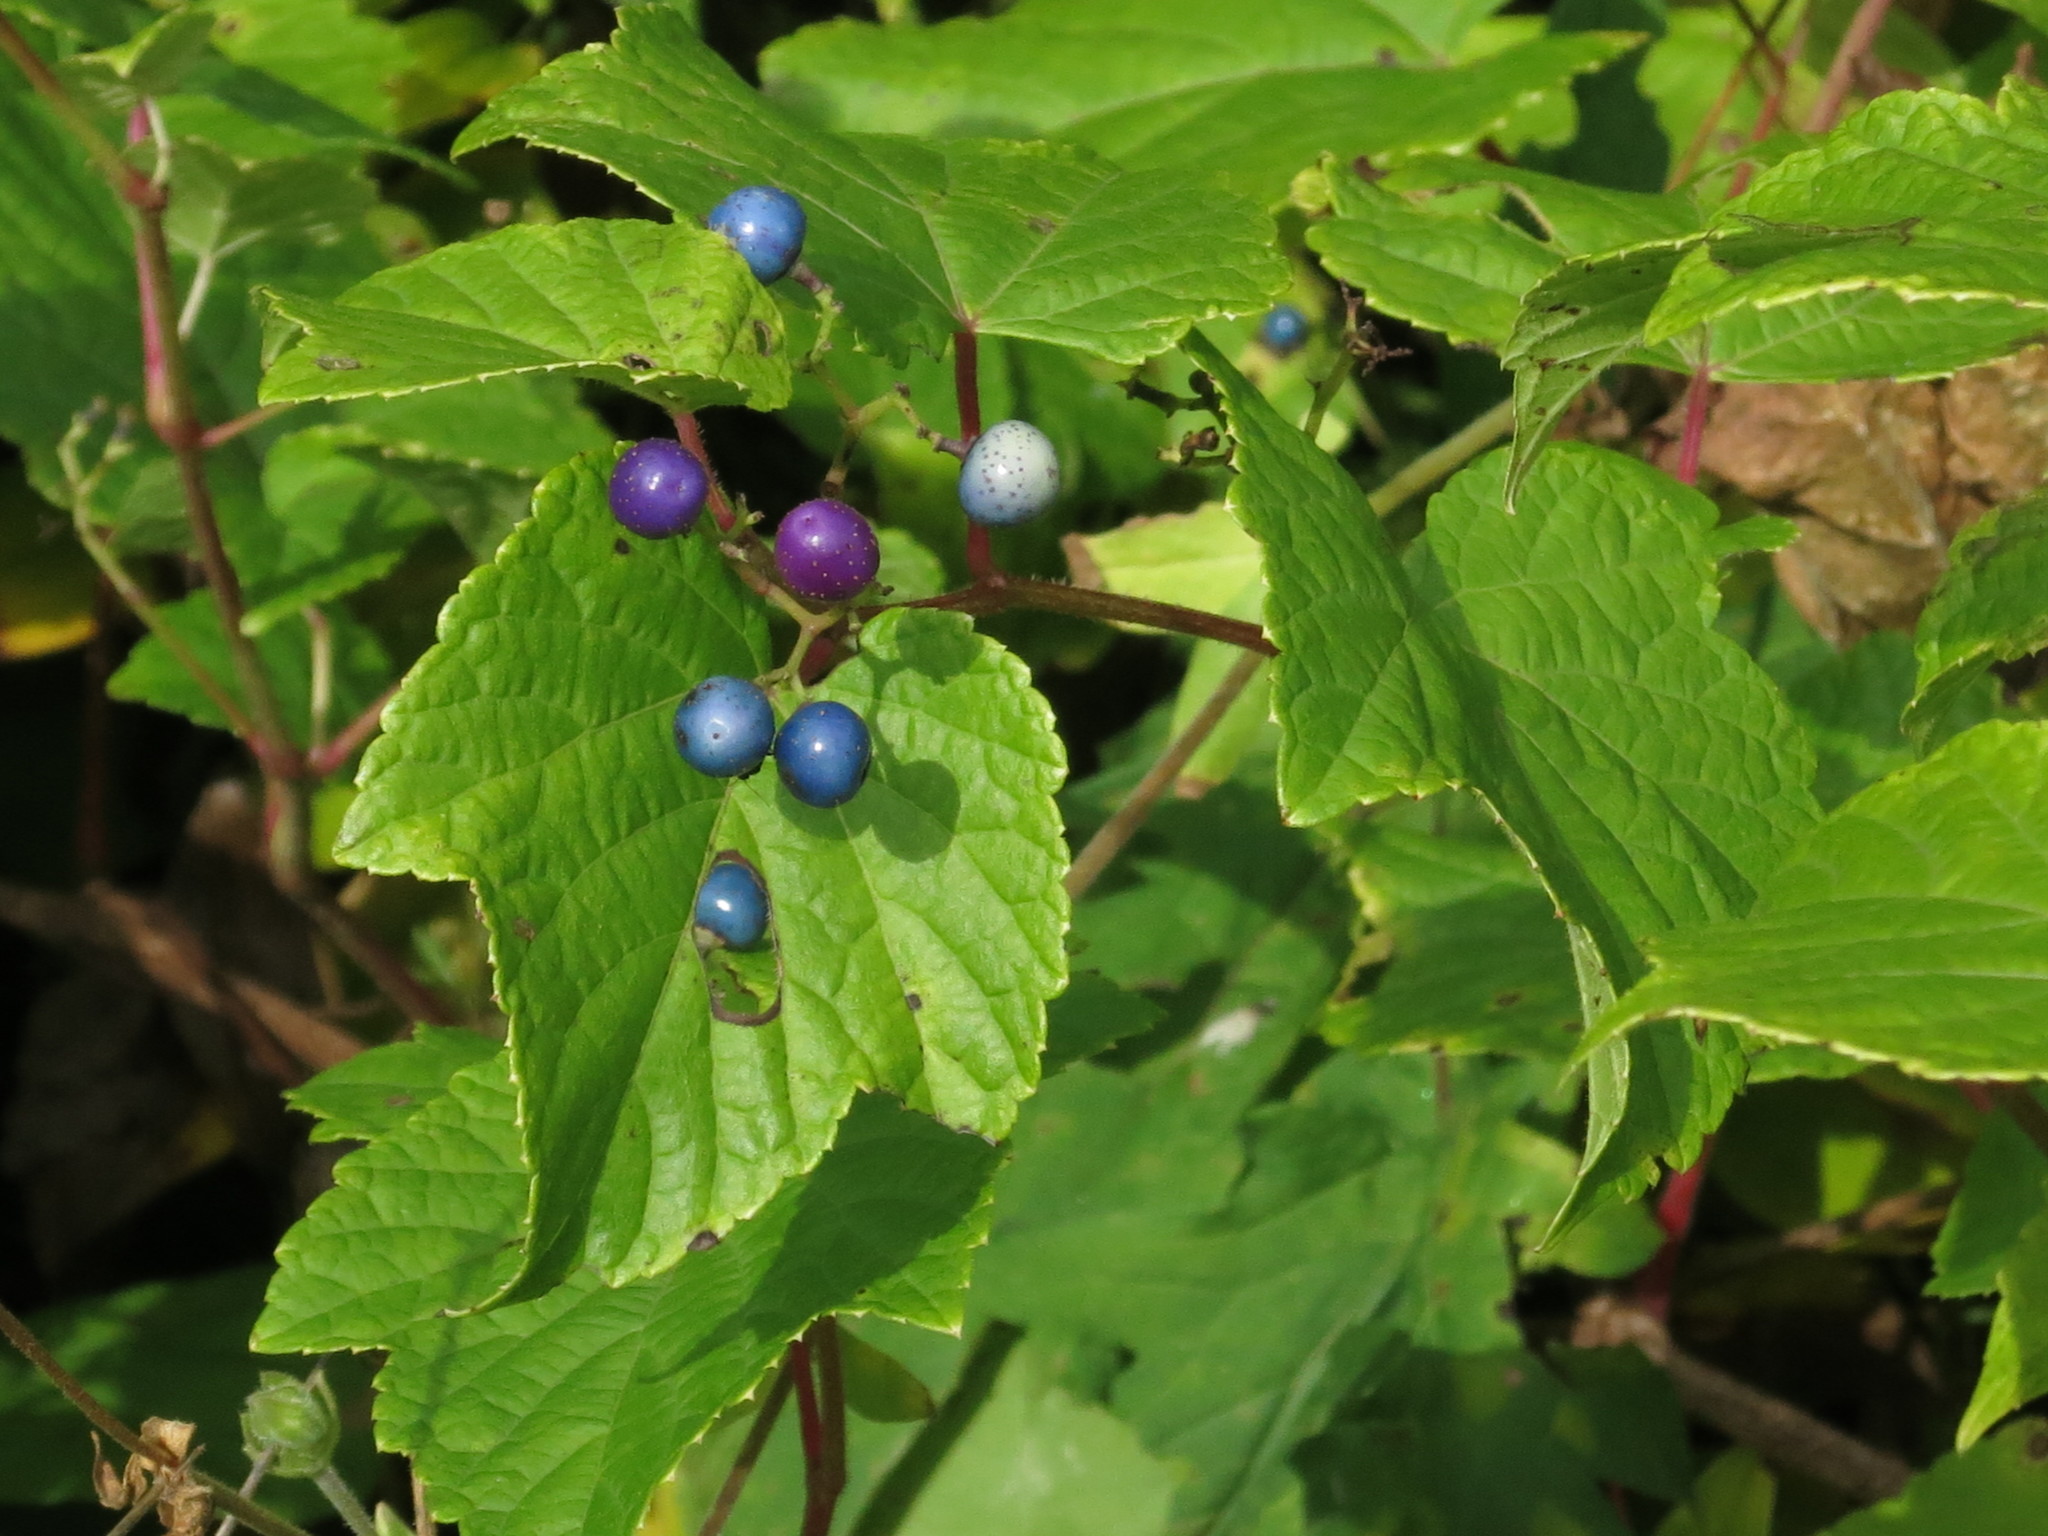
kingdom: Plantae
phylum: Tracheophyta
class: Magnoliopsida
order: Vitales
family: Vitaceae
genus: Ampelopsis
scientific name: Ampelopsis glandulosa
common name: Amur peppervine
